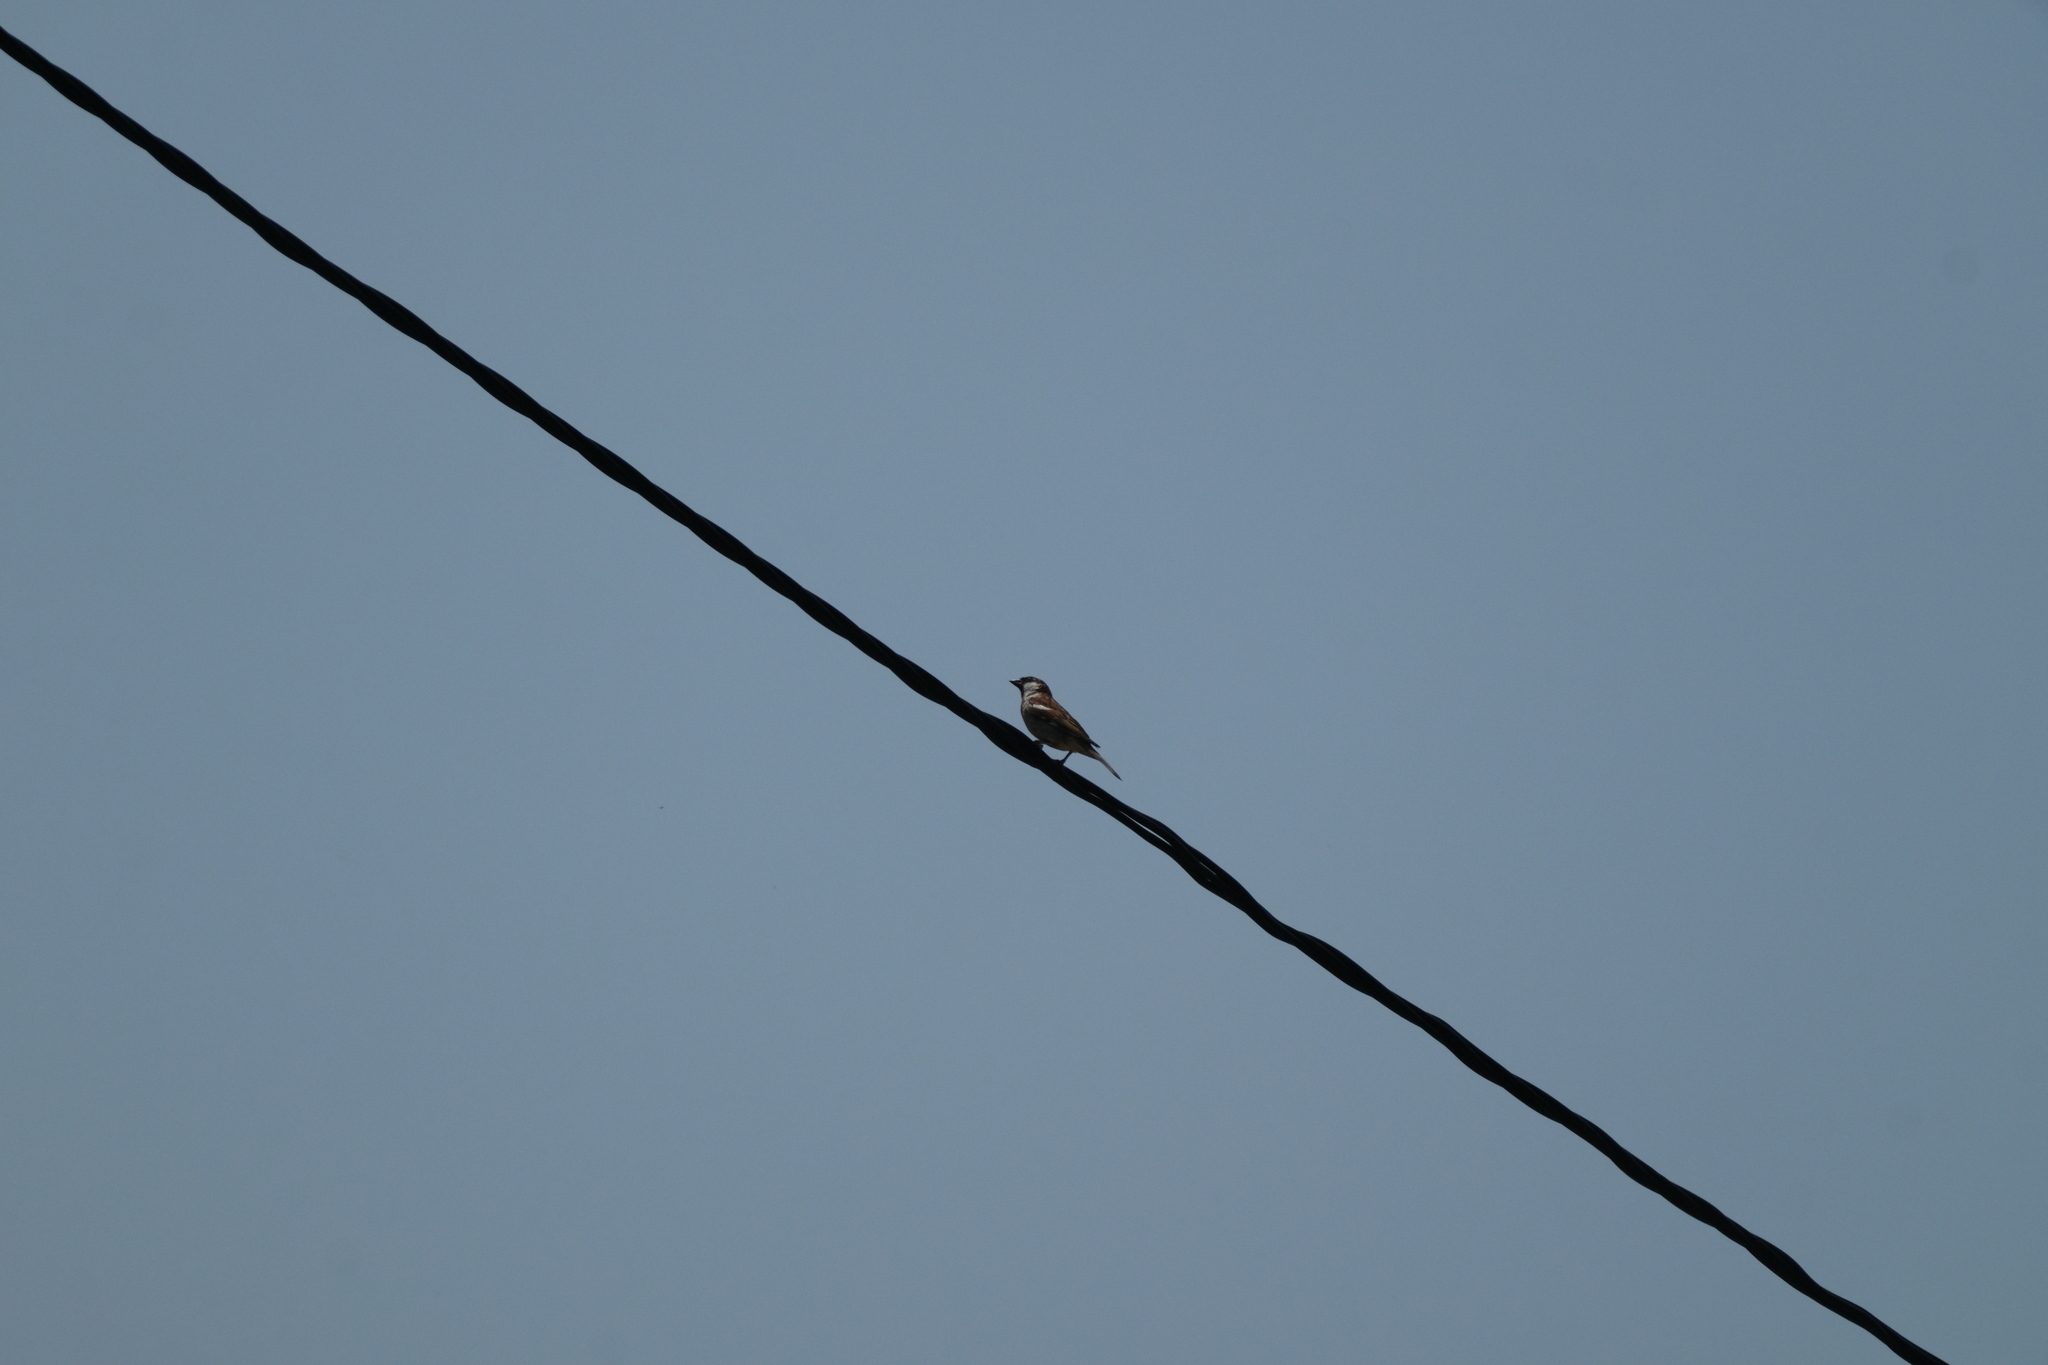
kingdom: Animalia
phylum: Chordata
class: Aves
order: Passeriformes
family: Passeridae
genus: Passer
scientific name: Passer domesticus
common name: House sparrow
